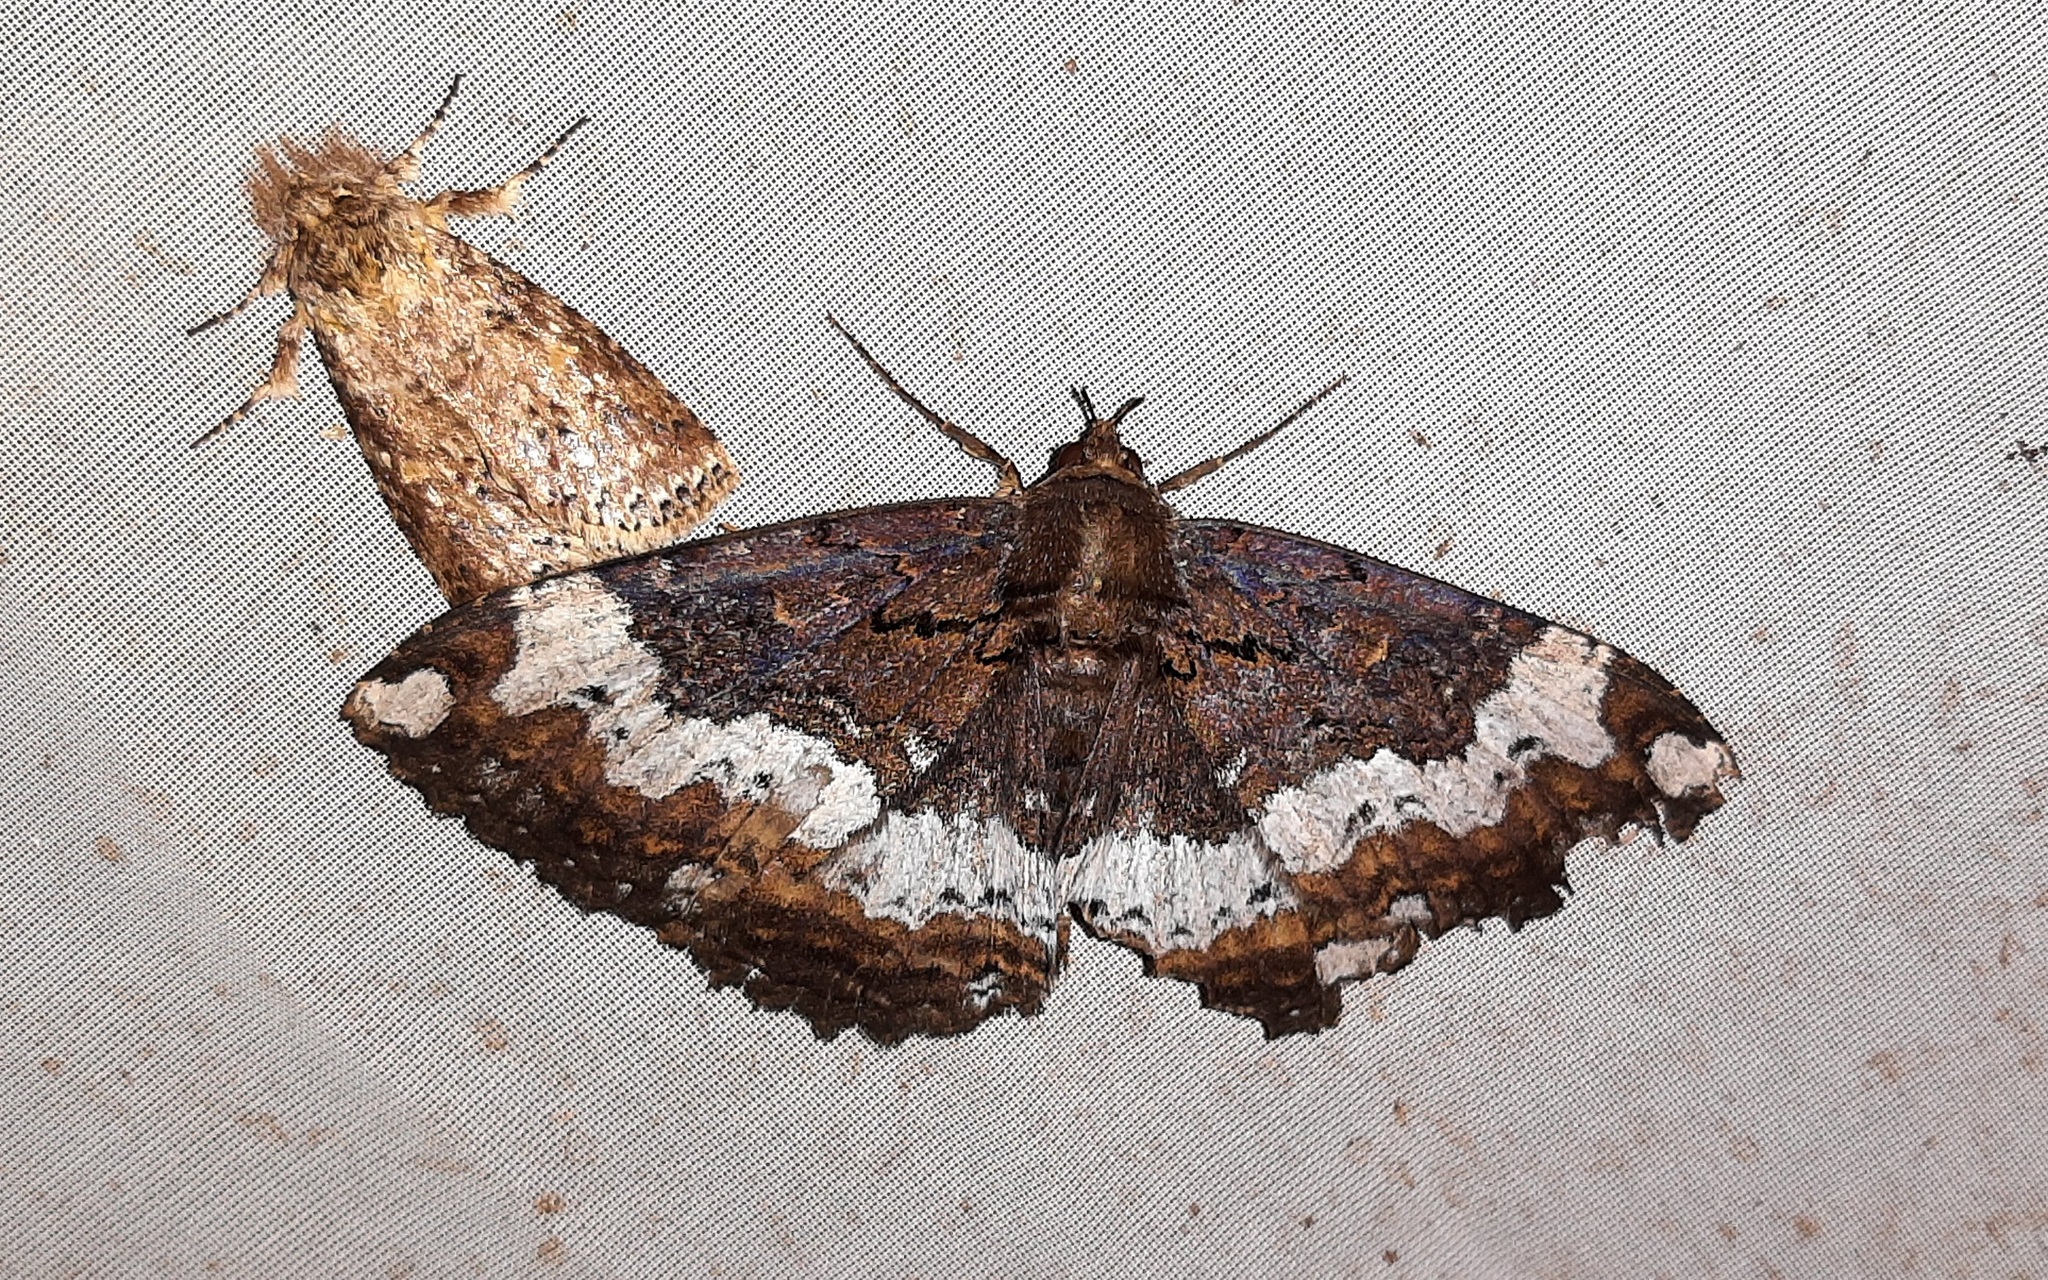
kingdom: Animalia
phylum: Arthropoda
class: Insecta
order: Lepidoptera
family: Erebidae
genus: Ramphia
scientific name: Ramphia albizona
